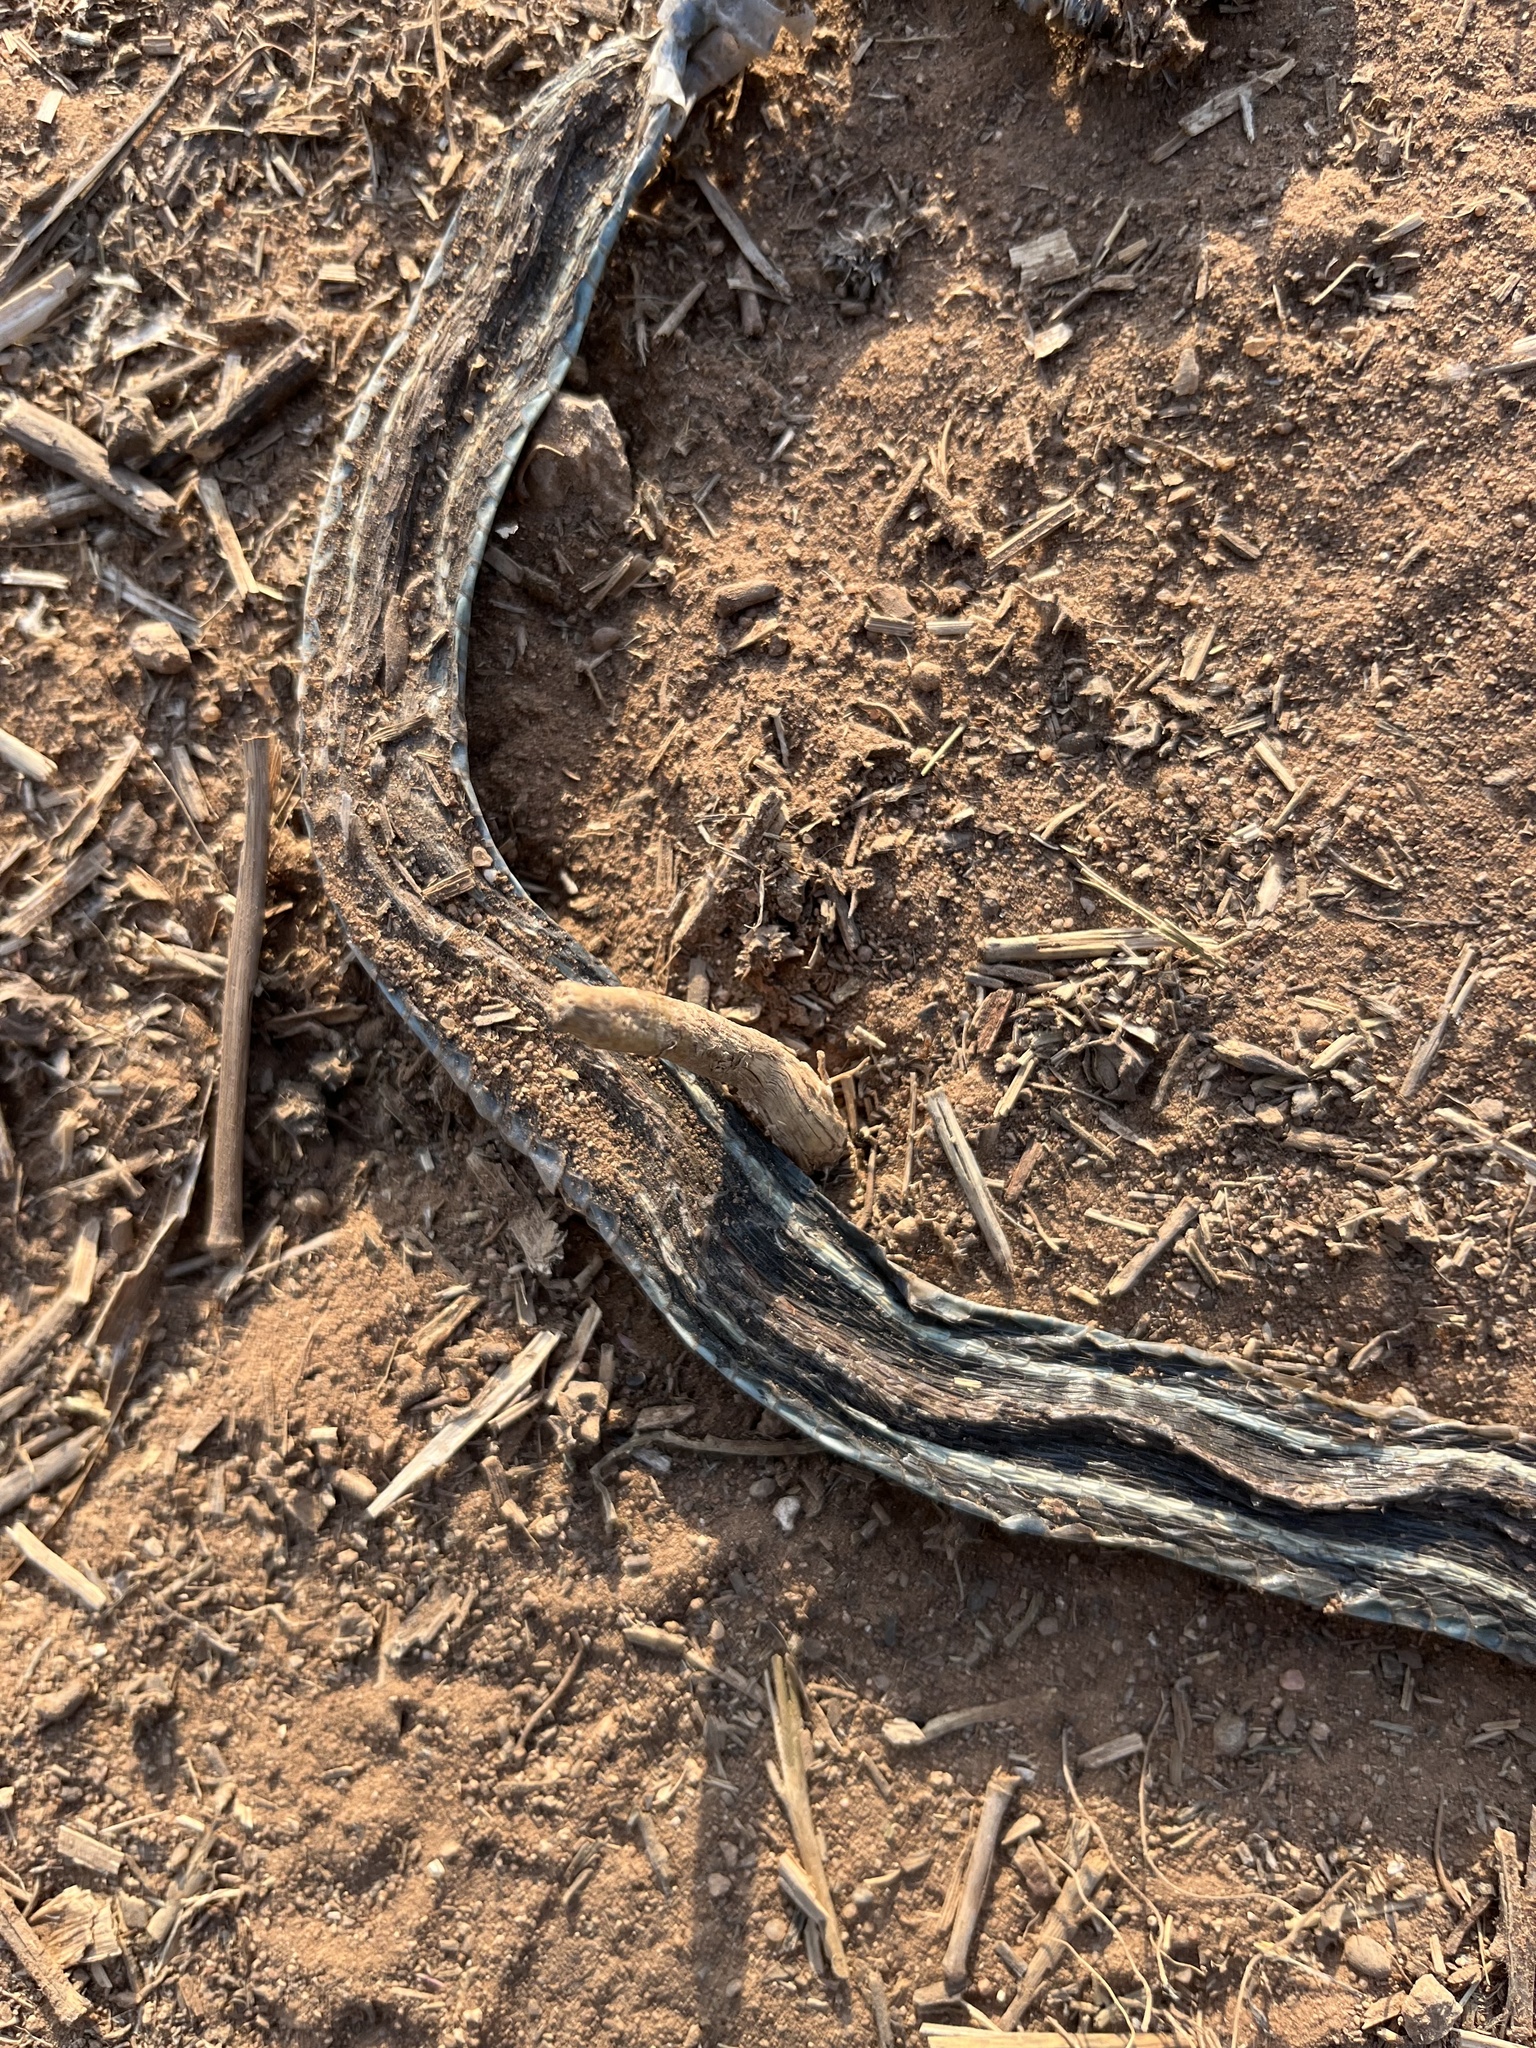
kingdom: Animalia
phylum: Chordata
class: Squamata
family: Colubridae
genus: Thamnophis
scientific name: Thamnophis proximus
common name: Western ribbon snake
